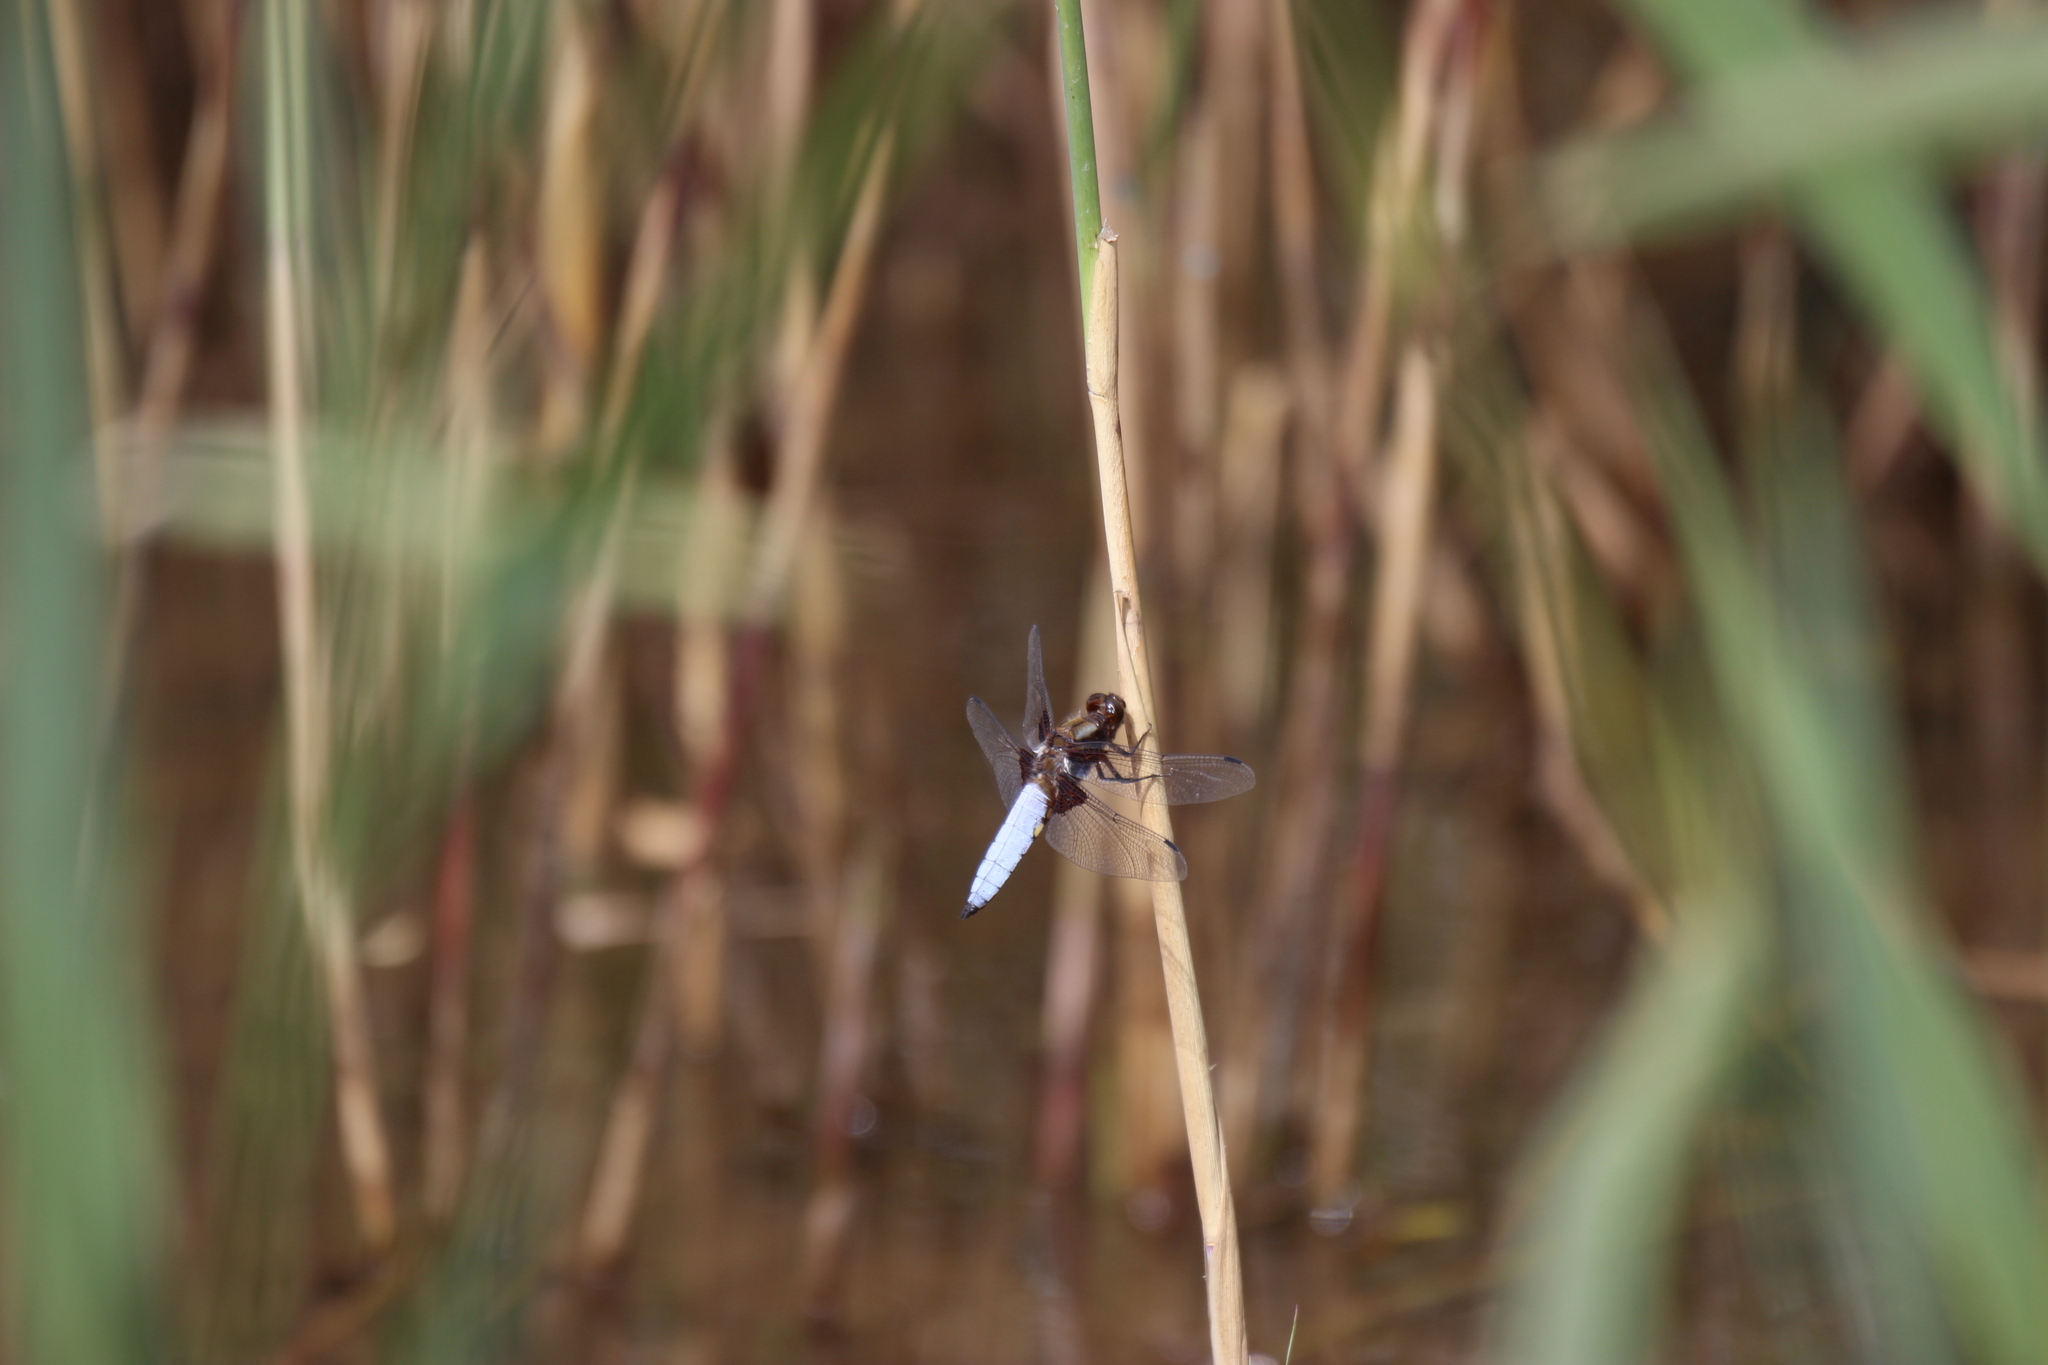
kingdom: Animalia
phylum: Arthropoda
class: Insecta
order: Odonata
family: Libellulidae
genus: Libellula
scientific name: Libellula depressa
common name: Broad-bodied chaser
